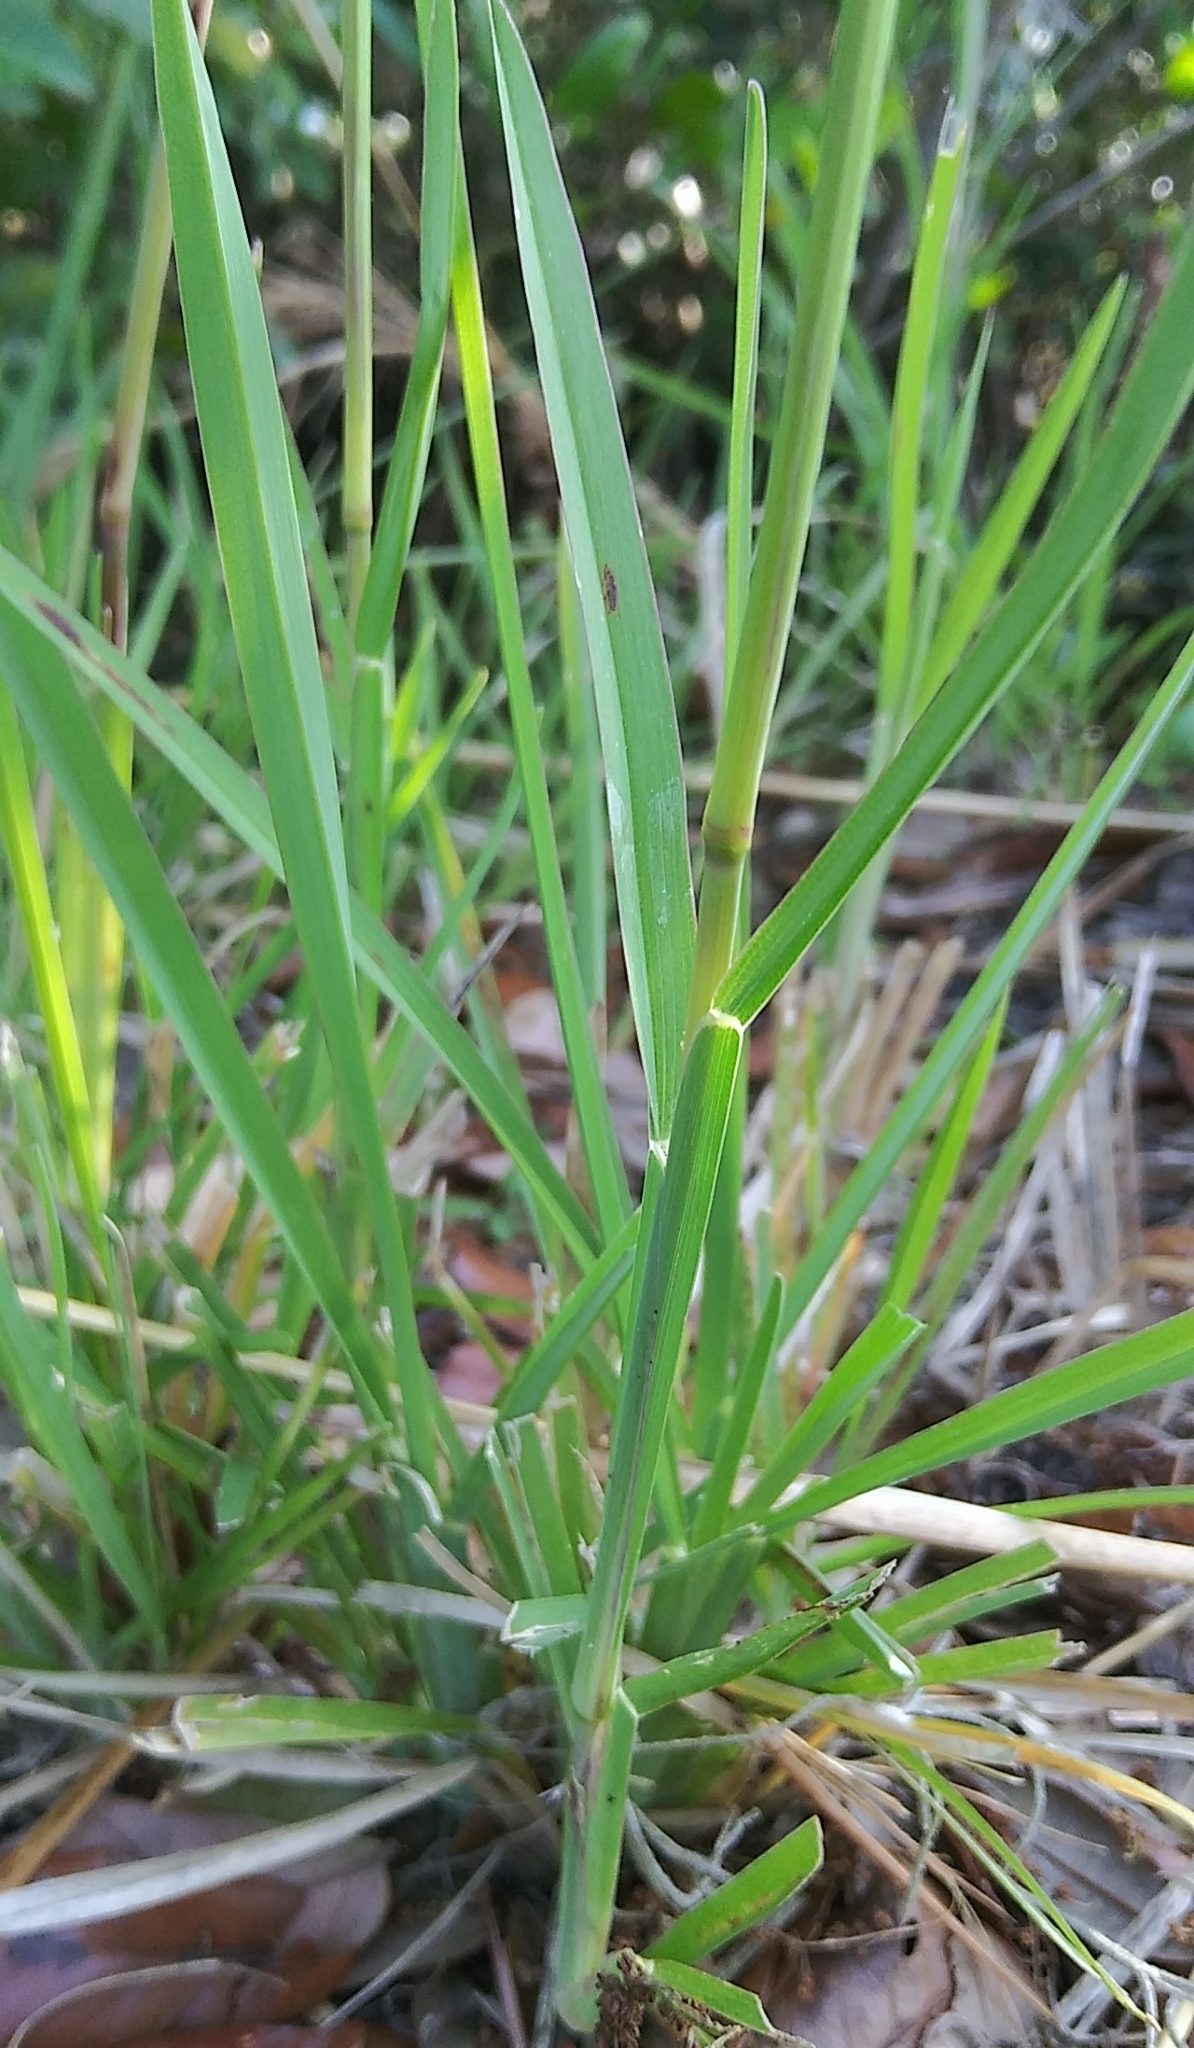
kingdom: Plantae
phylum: Tracheophyta
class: Liliopsida
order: Poales
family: Poaceae
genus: Eustachys
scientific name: Eustachys petraea
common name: Pinewoods fingergrass
